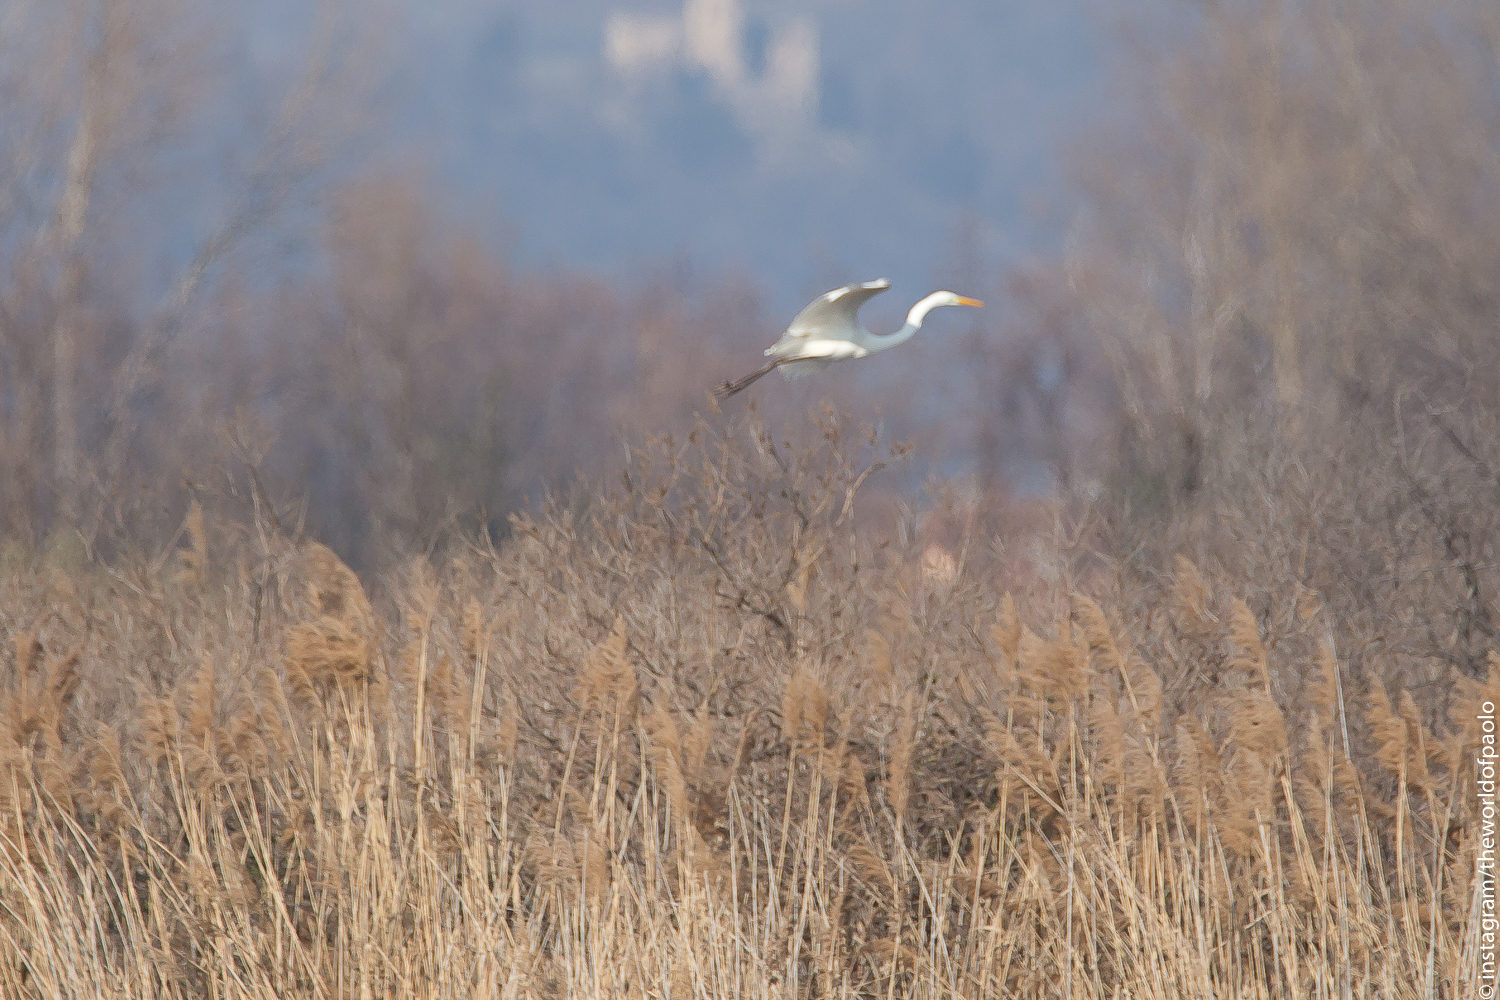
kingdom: Animalia
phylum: Chordata
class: Aves
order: Pelecaniformes
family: Ardeidae
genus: Ardea
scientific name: Ardea alba
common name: Great egret
